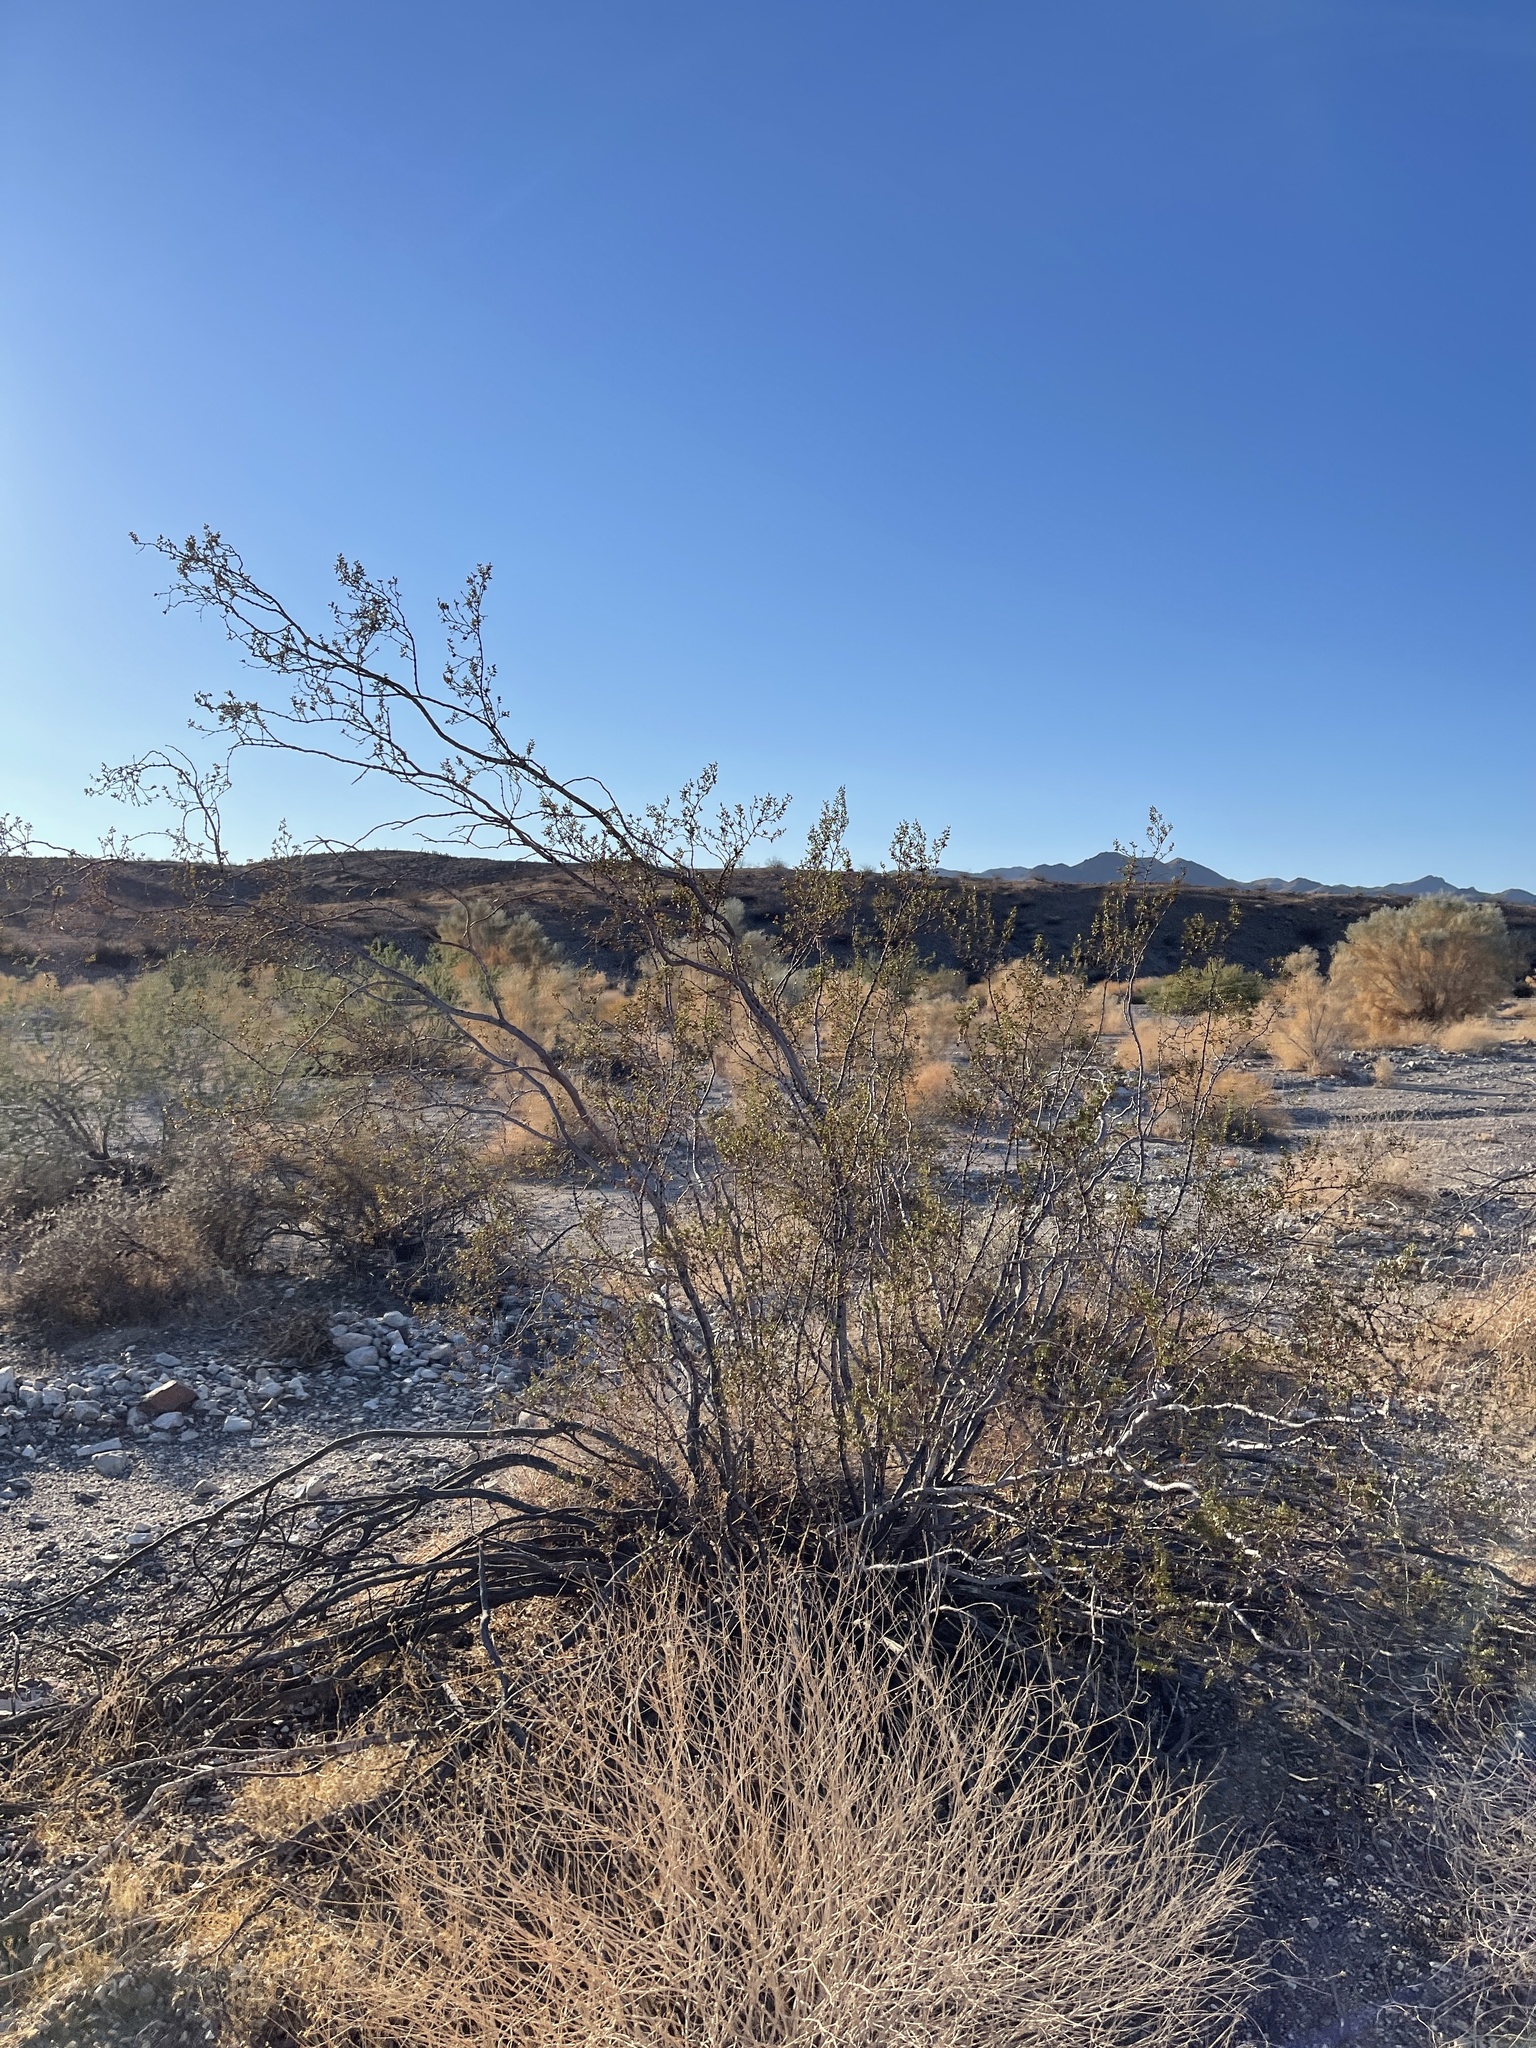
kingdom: Plantae
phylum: Tracheophyta
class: Magnoliopsida
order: Zygophyllales
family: Zygophyllaceae
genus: Larrea
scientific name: Larrea tridentata
